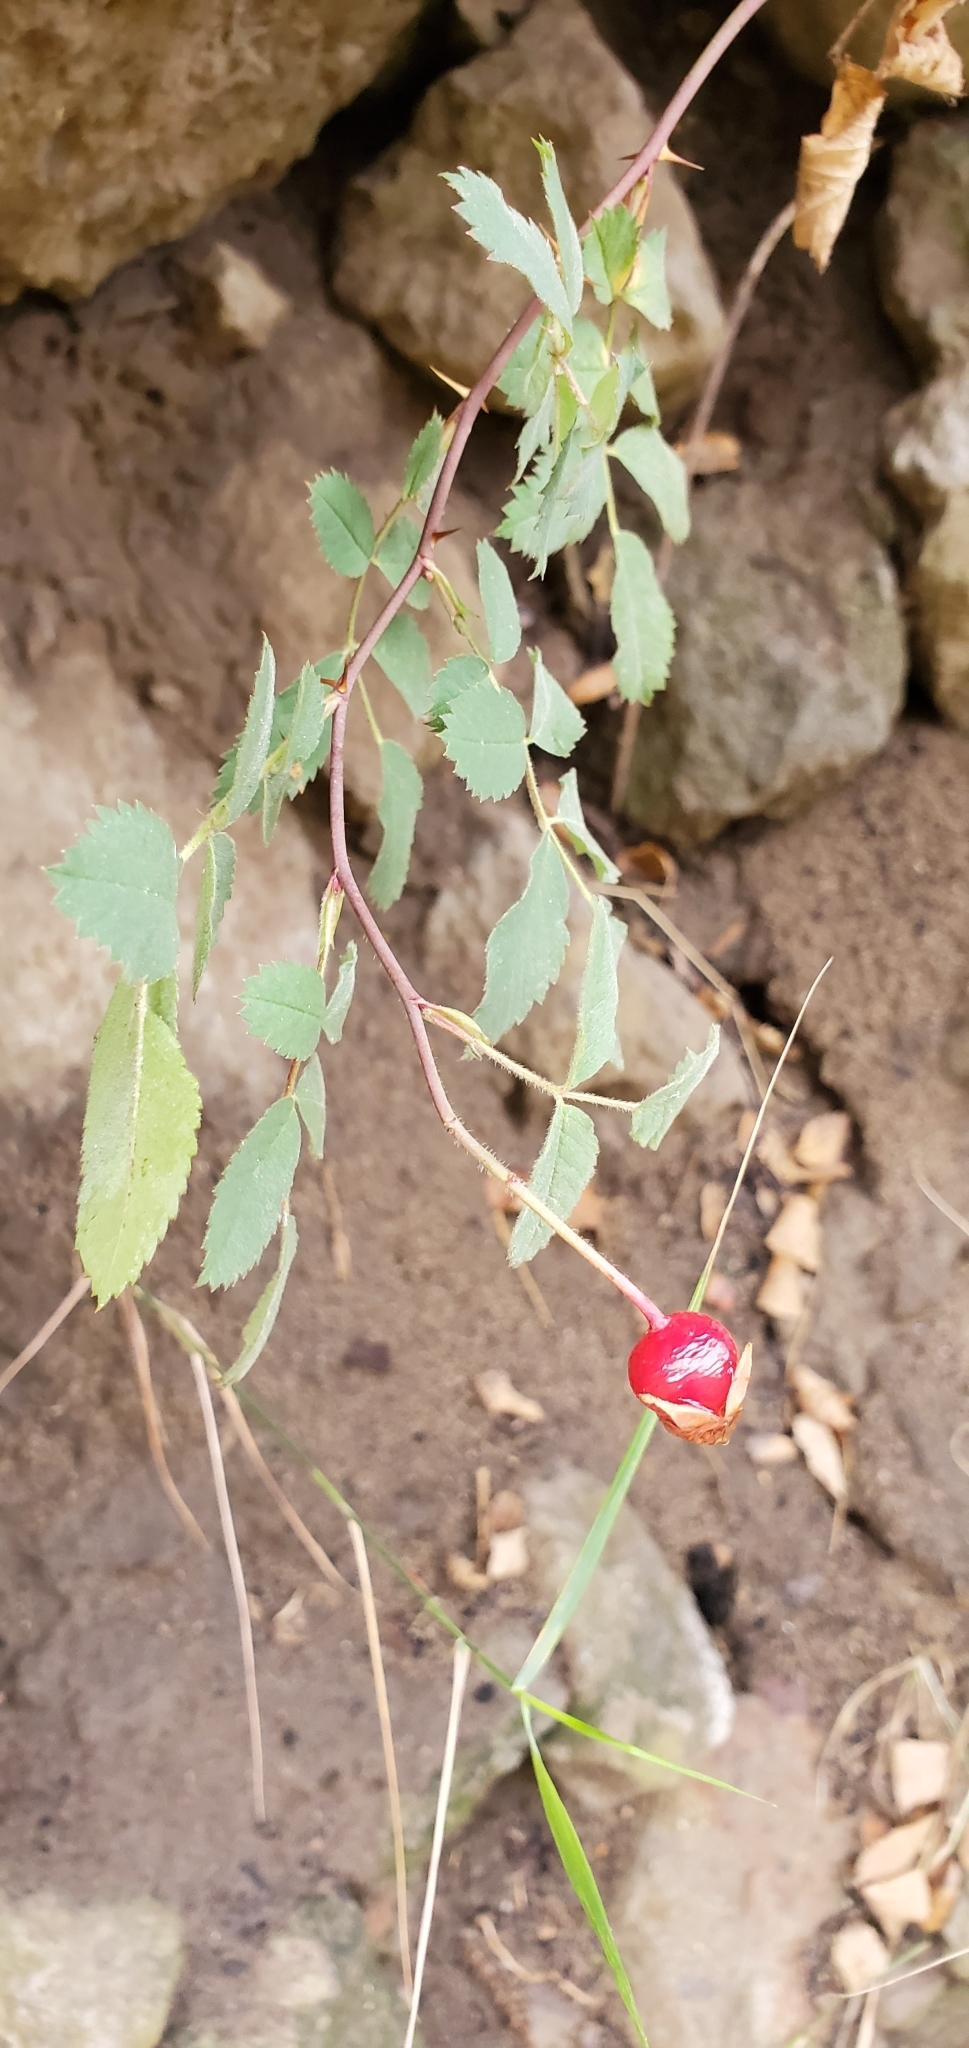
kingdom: Plantae
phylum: Tracheophyta
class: Magnoliopsida
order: Rosales
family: Rosaceae
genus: Rosa
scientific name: Rosa californica
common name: California rose
